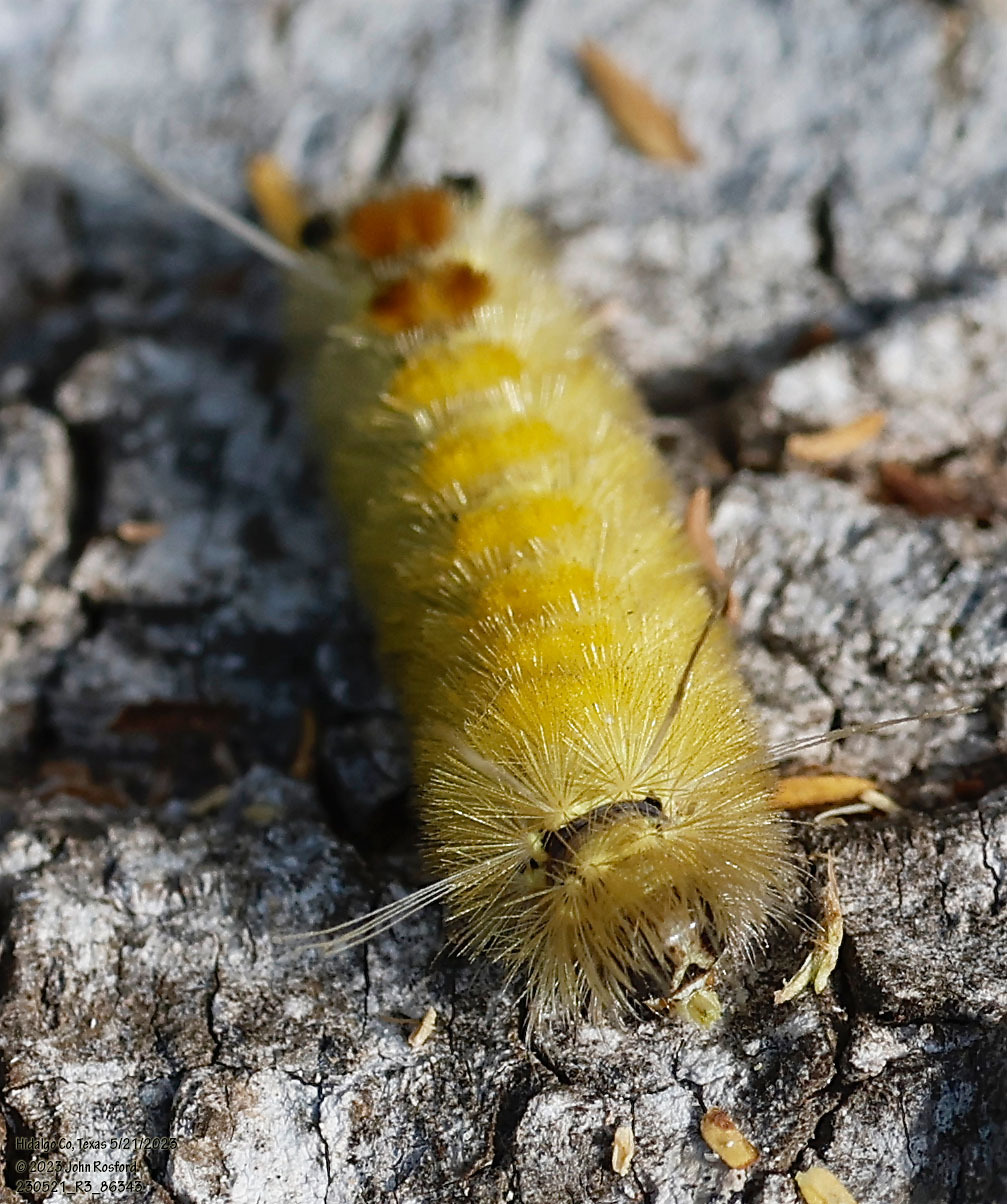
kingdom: Animalia
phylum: Arthropoda
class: Insecta
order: Lepidoptera
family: Erebidae
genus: Lophocampa
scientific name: Lophocampa annulosa
